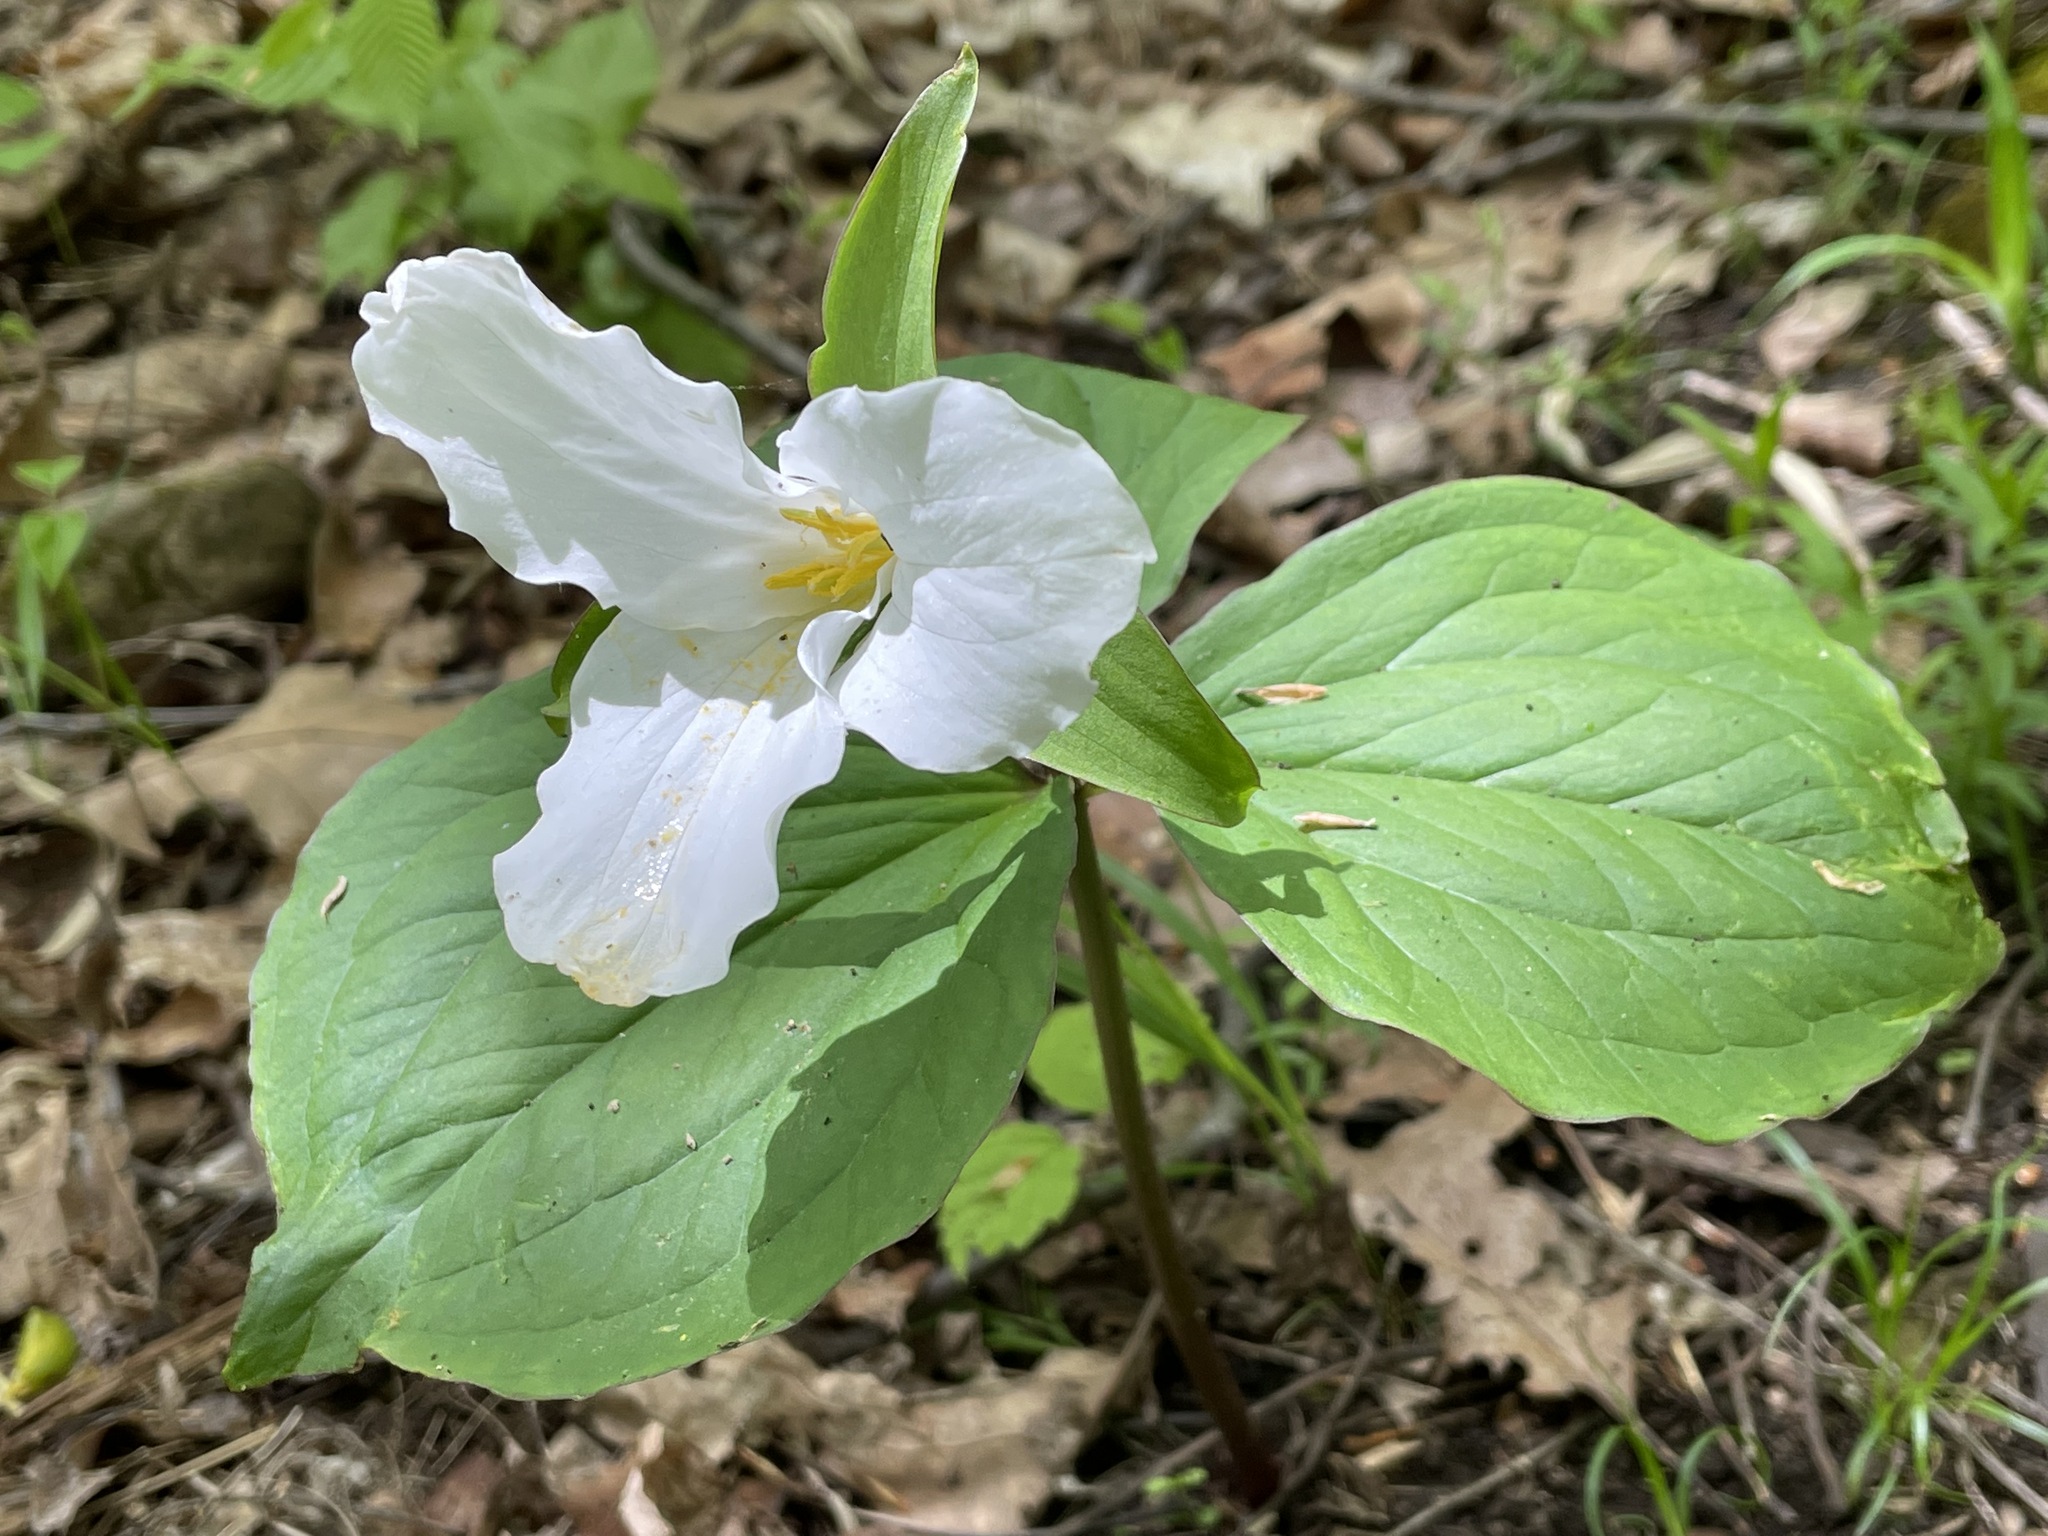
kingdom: Plantae
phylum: Tracheophyta
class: Liliopsida
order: Liliales
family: Melanthiaceae
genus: Trillium
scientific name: Trillium grandiflorum
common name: Great white trillium
